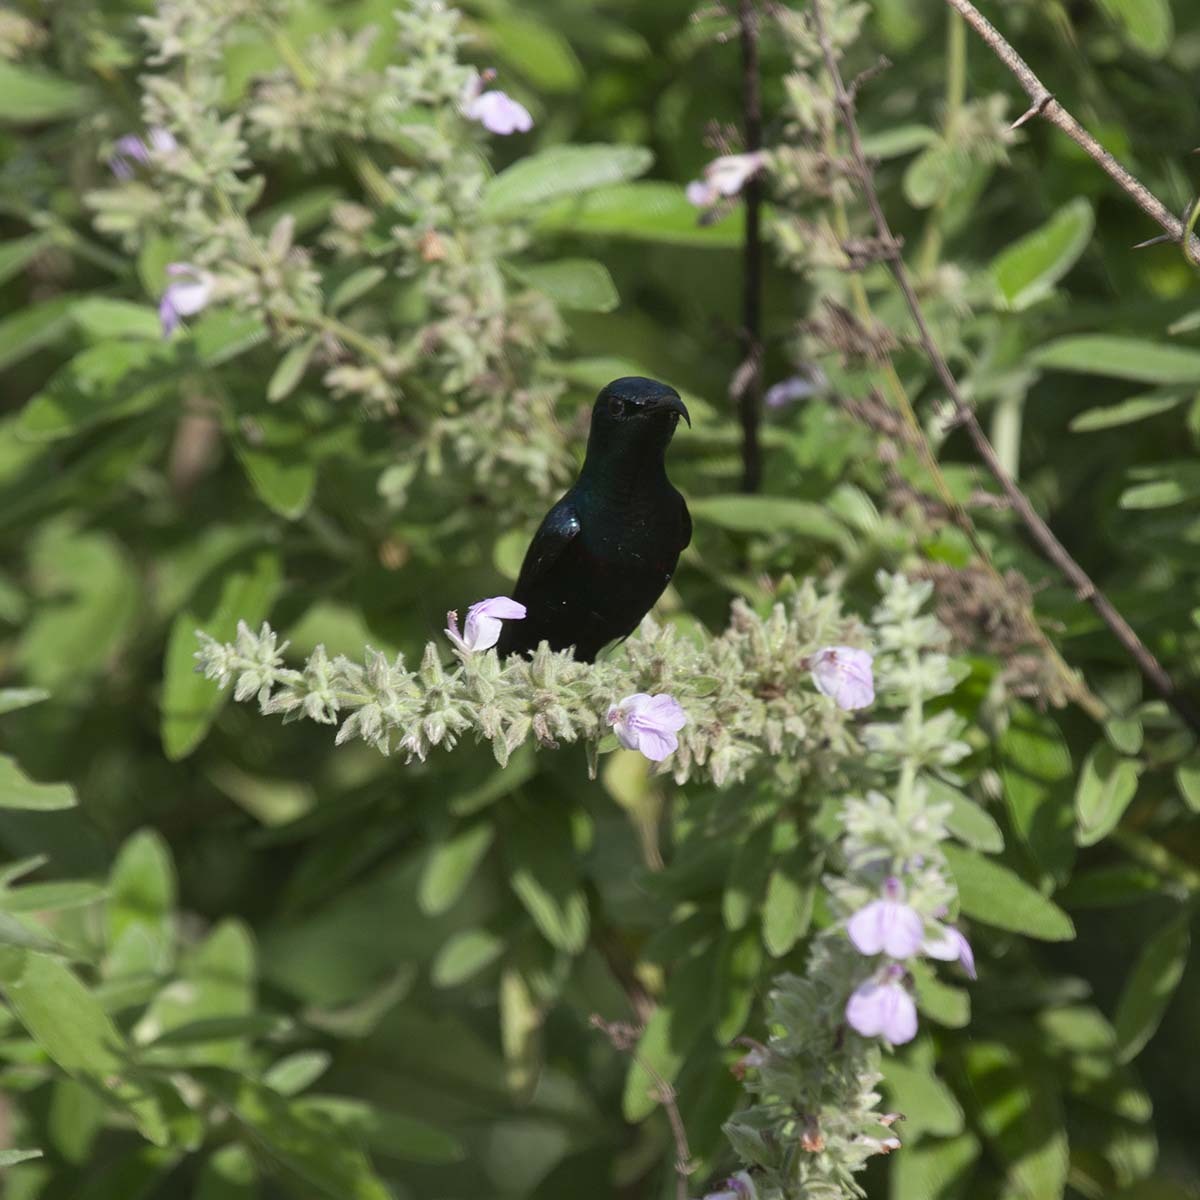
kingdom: Animalia
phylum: Chordata
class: Aves
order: Passeriformes
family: Nectariniidae
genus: Cinnyris
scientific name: Cinnyris asiaticus
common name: Purple sunbird
